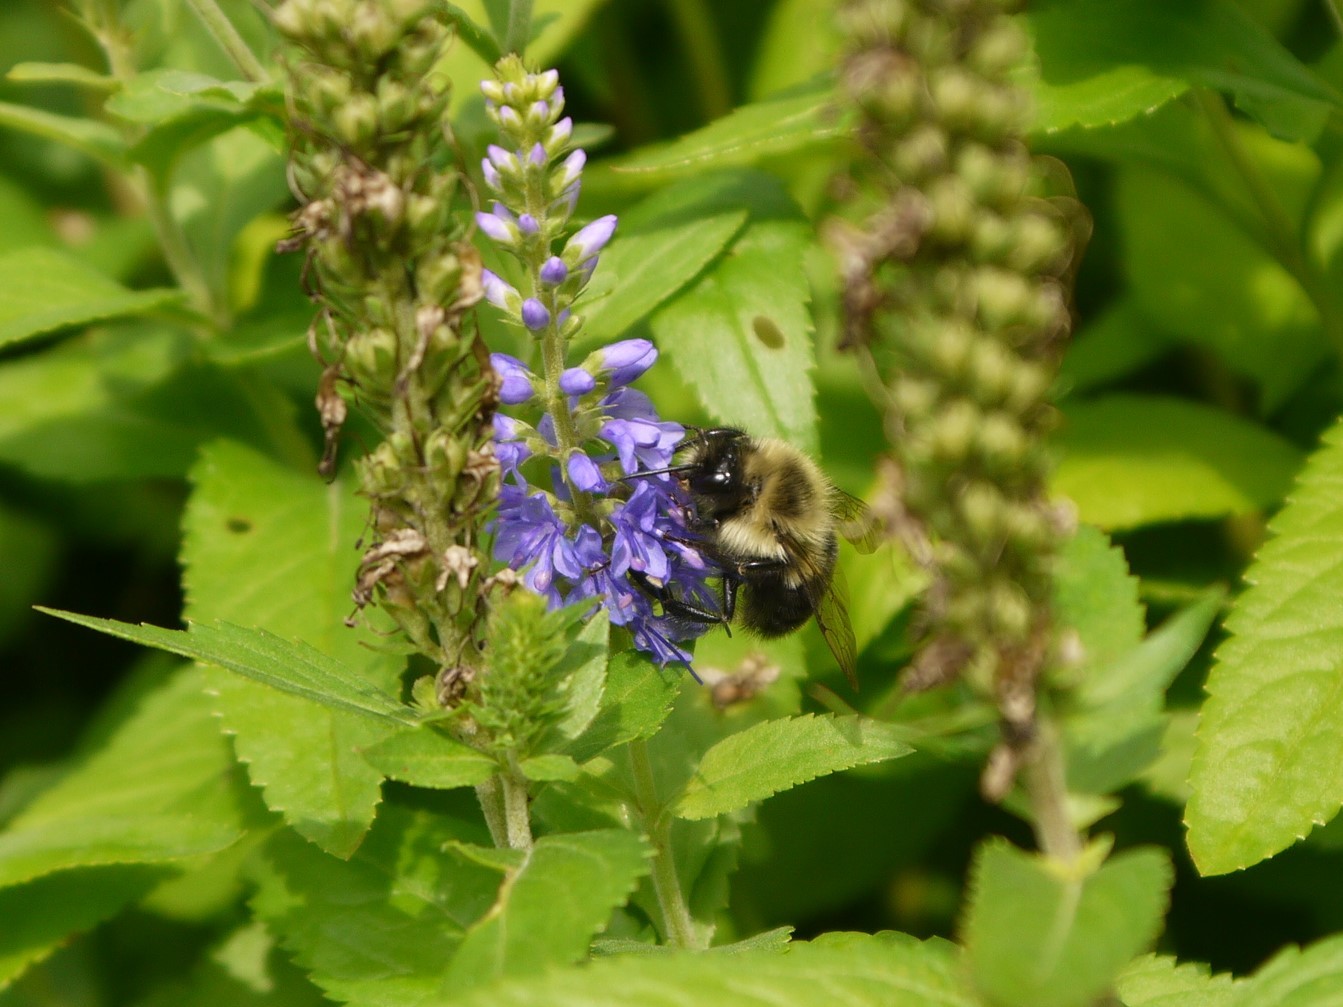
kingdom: Animalia
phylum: Arthropoda
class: Insecta
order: Hymenoptera
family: Apidae
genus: Bombus
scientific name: Bombus impatiens
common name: Common eastern bumble bee
